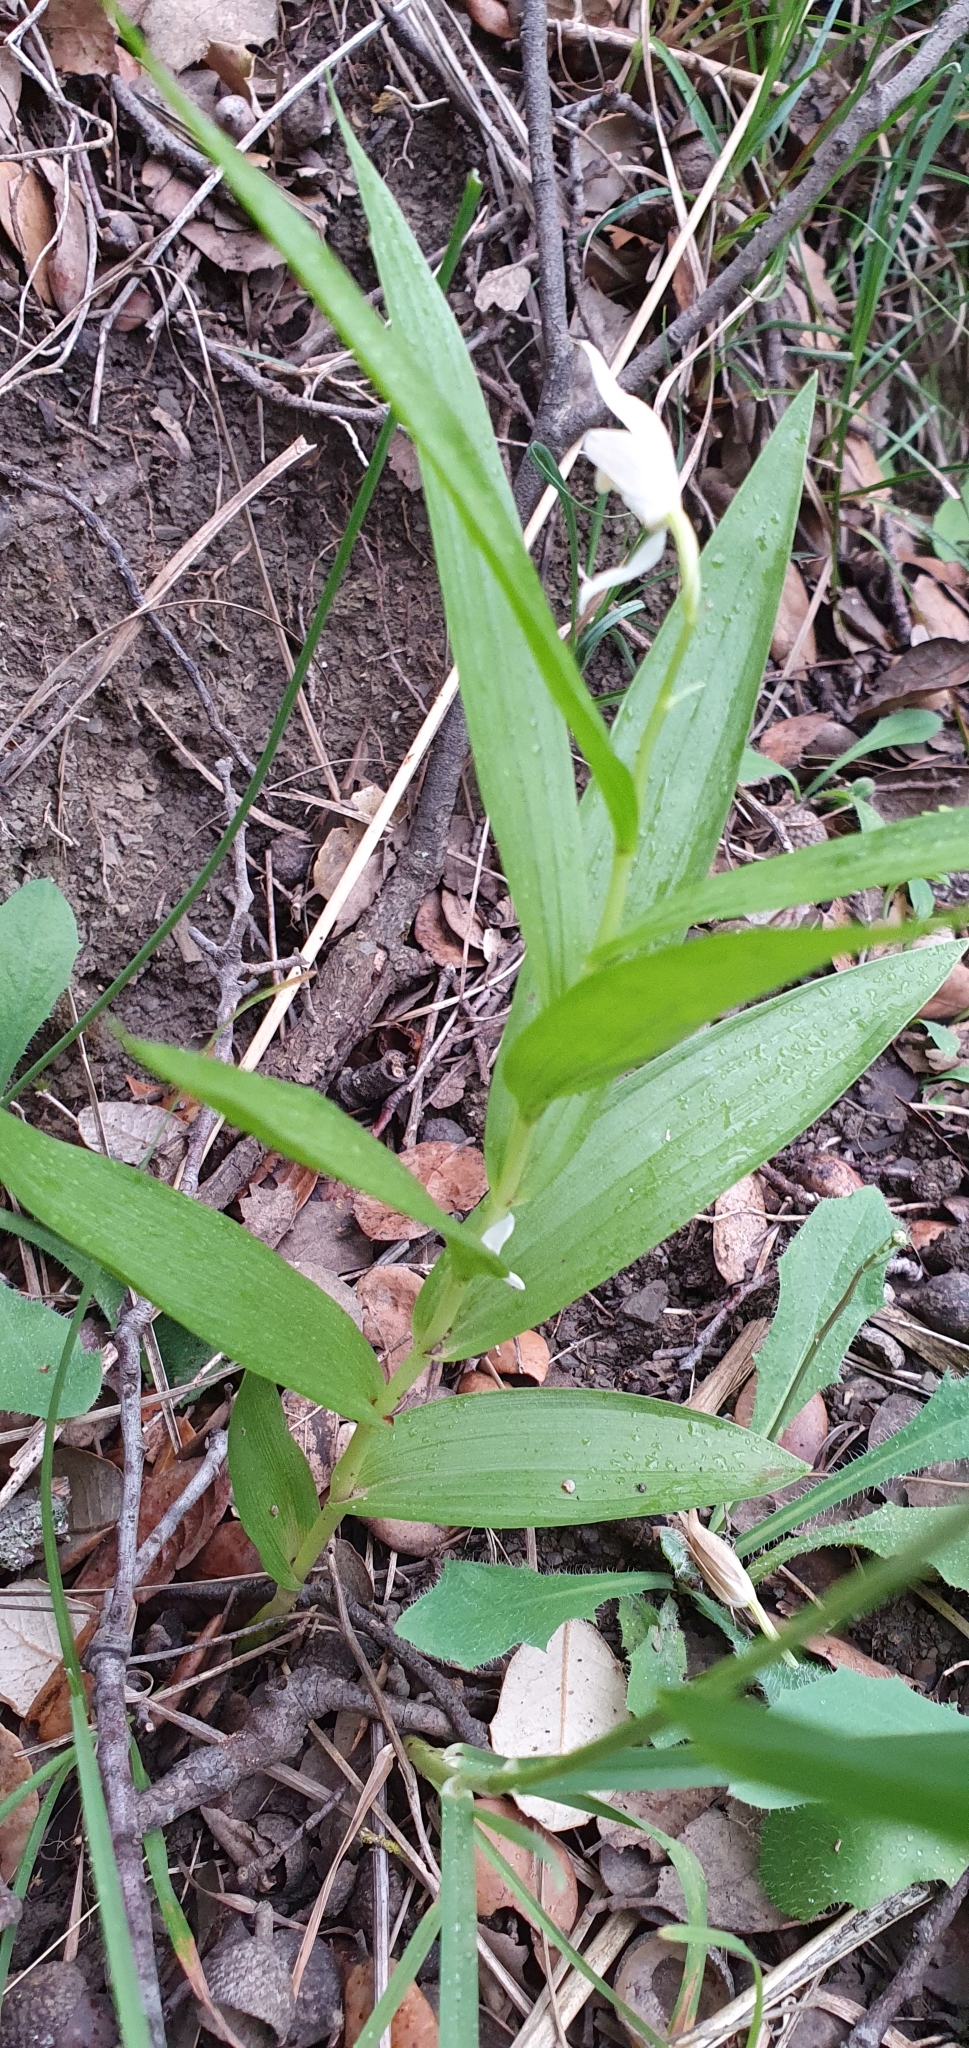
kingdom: Plantae
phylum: Tracheophyta
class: Liliopsida
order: Asparagales
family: Orchidaceae
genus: Cephalanthera
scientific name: Cephalanthera longifolia
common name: Narrow-leaved helleborine
